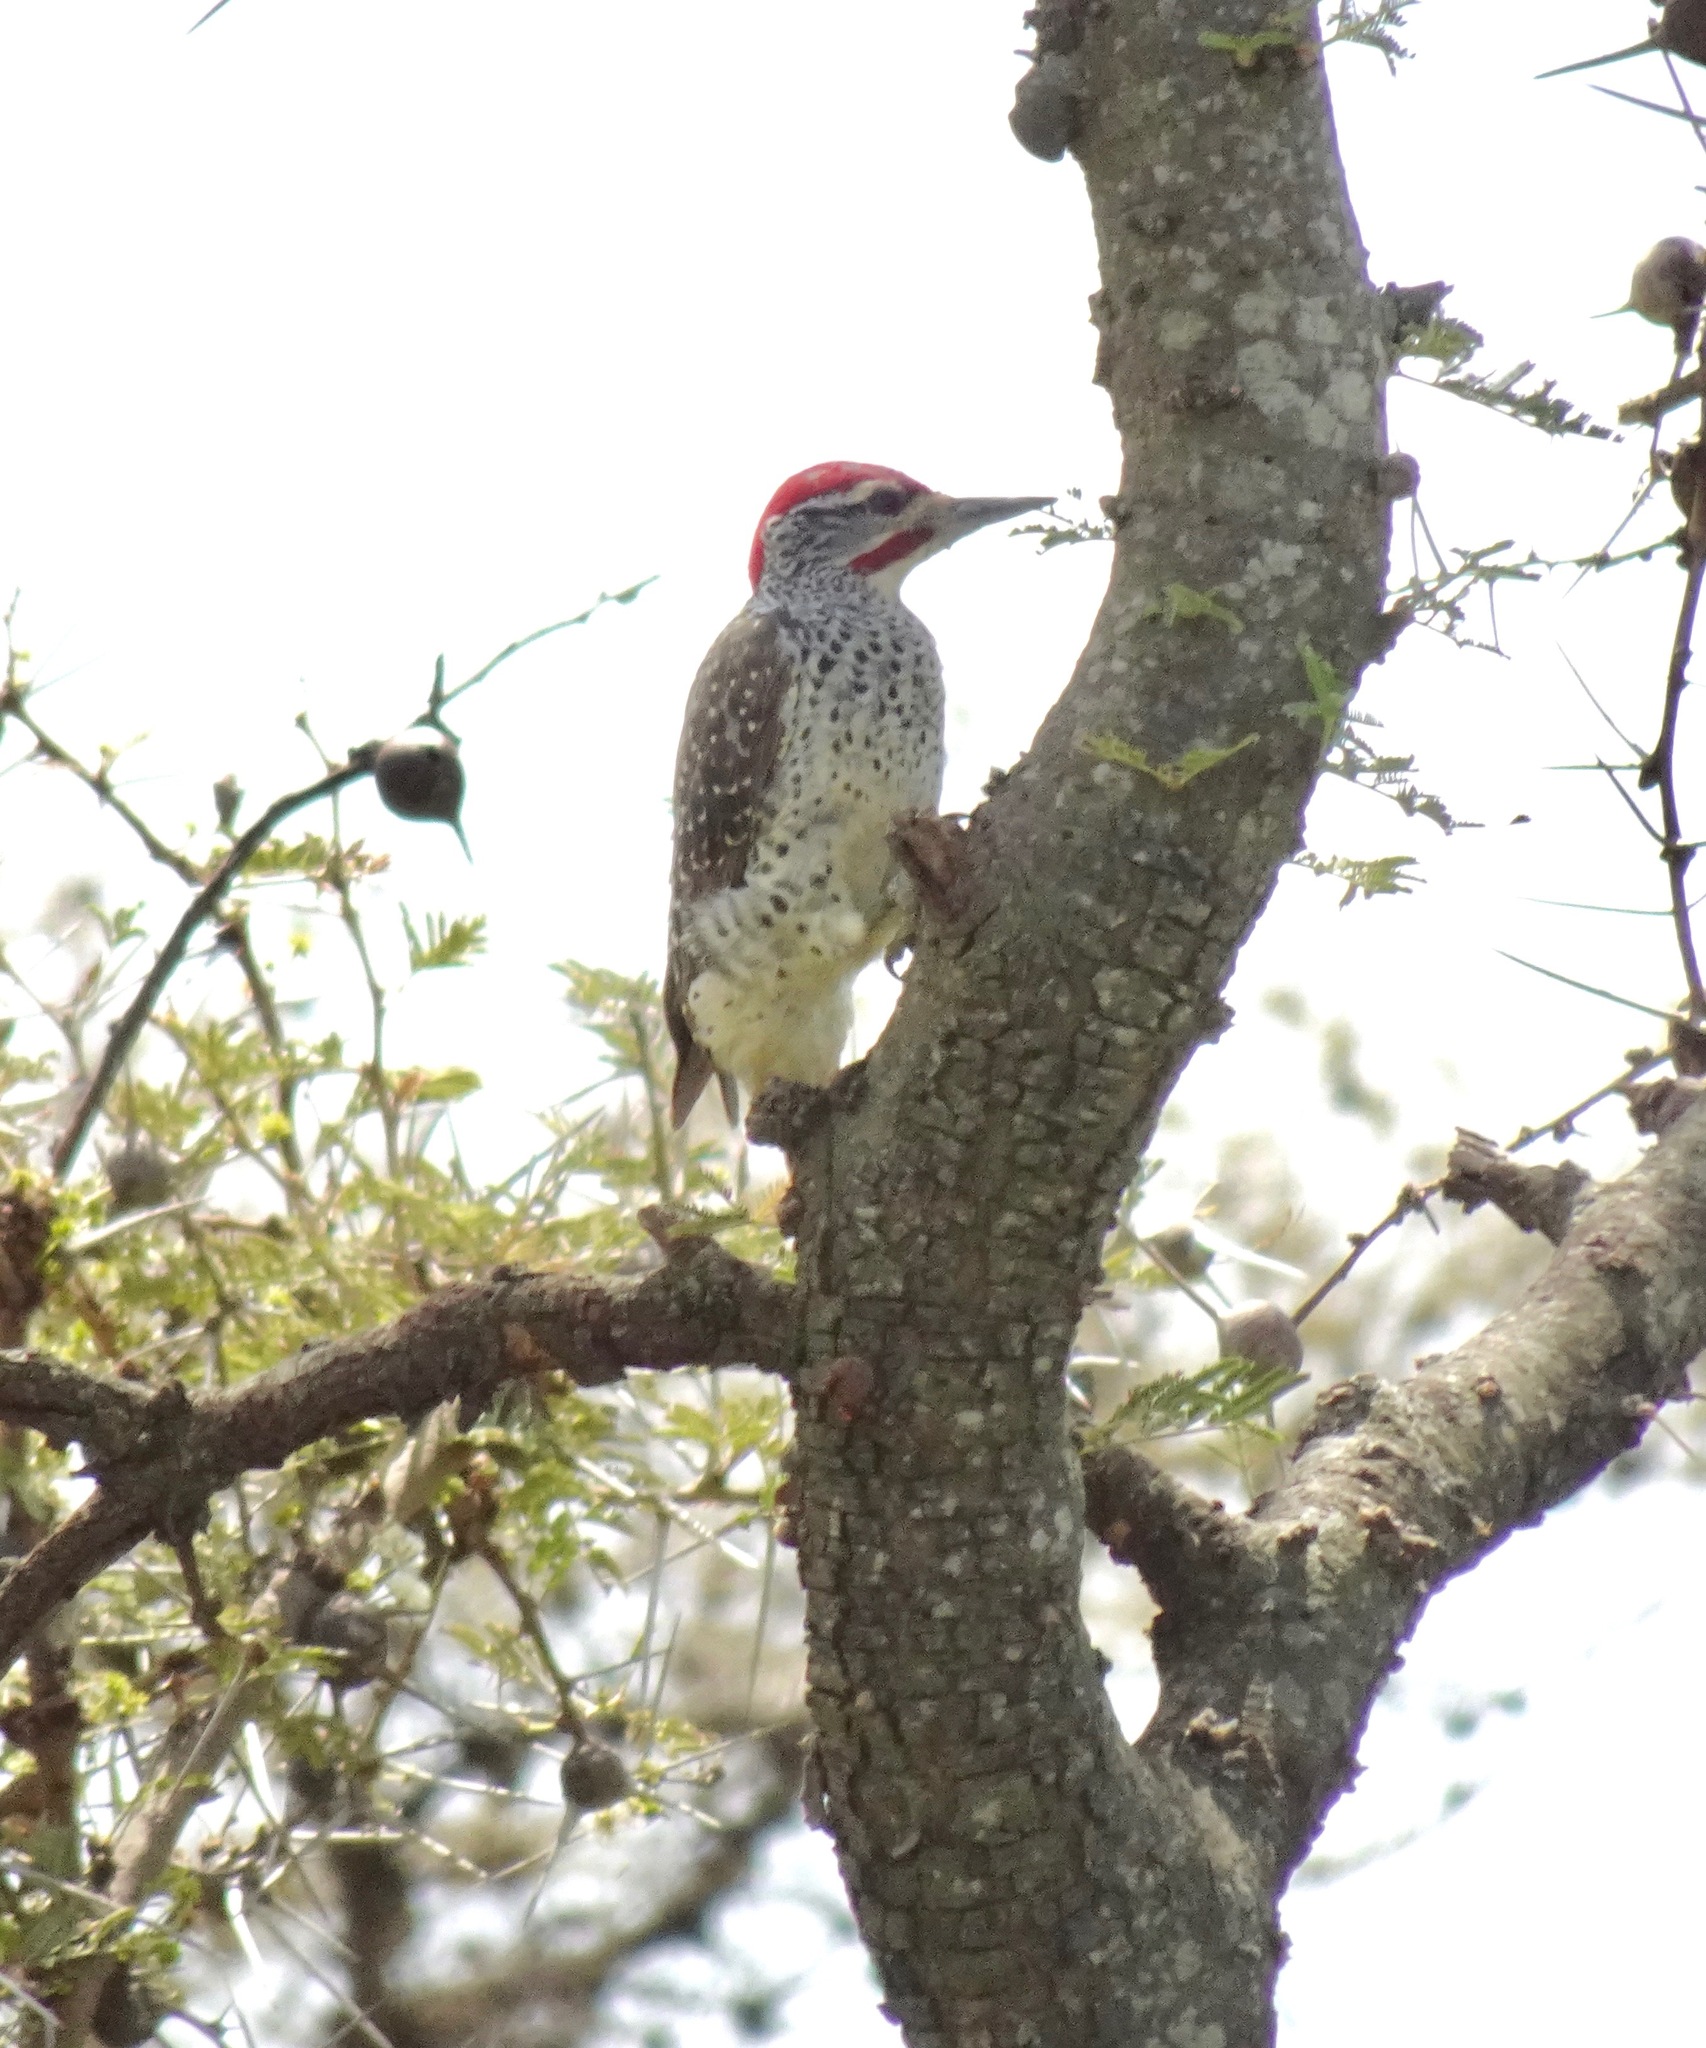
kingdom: Animalia
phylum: Chordata
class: Aves
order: Piciformes
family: Picidae
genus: Campethera
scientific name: Campethera nubica
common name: Nubian woodpecker
